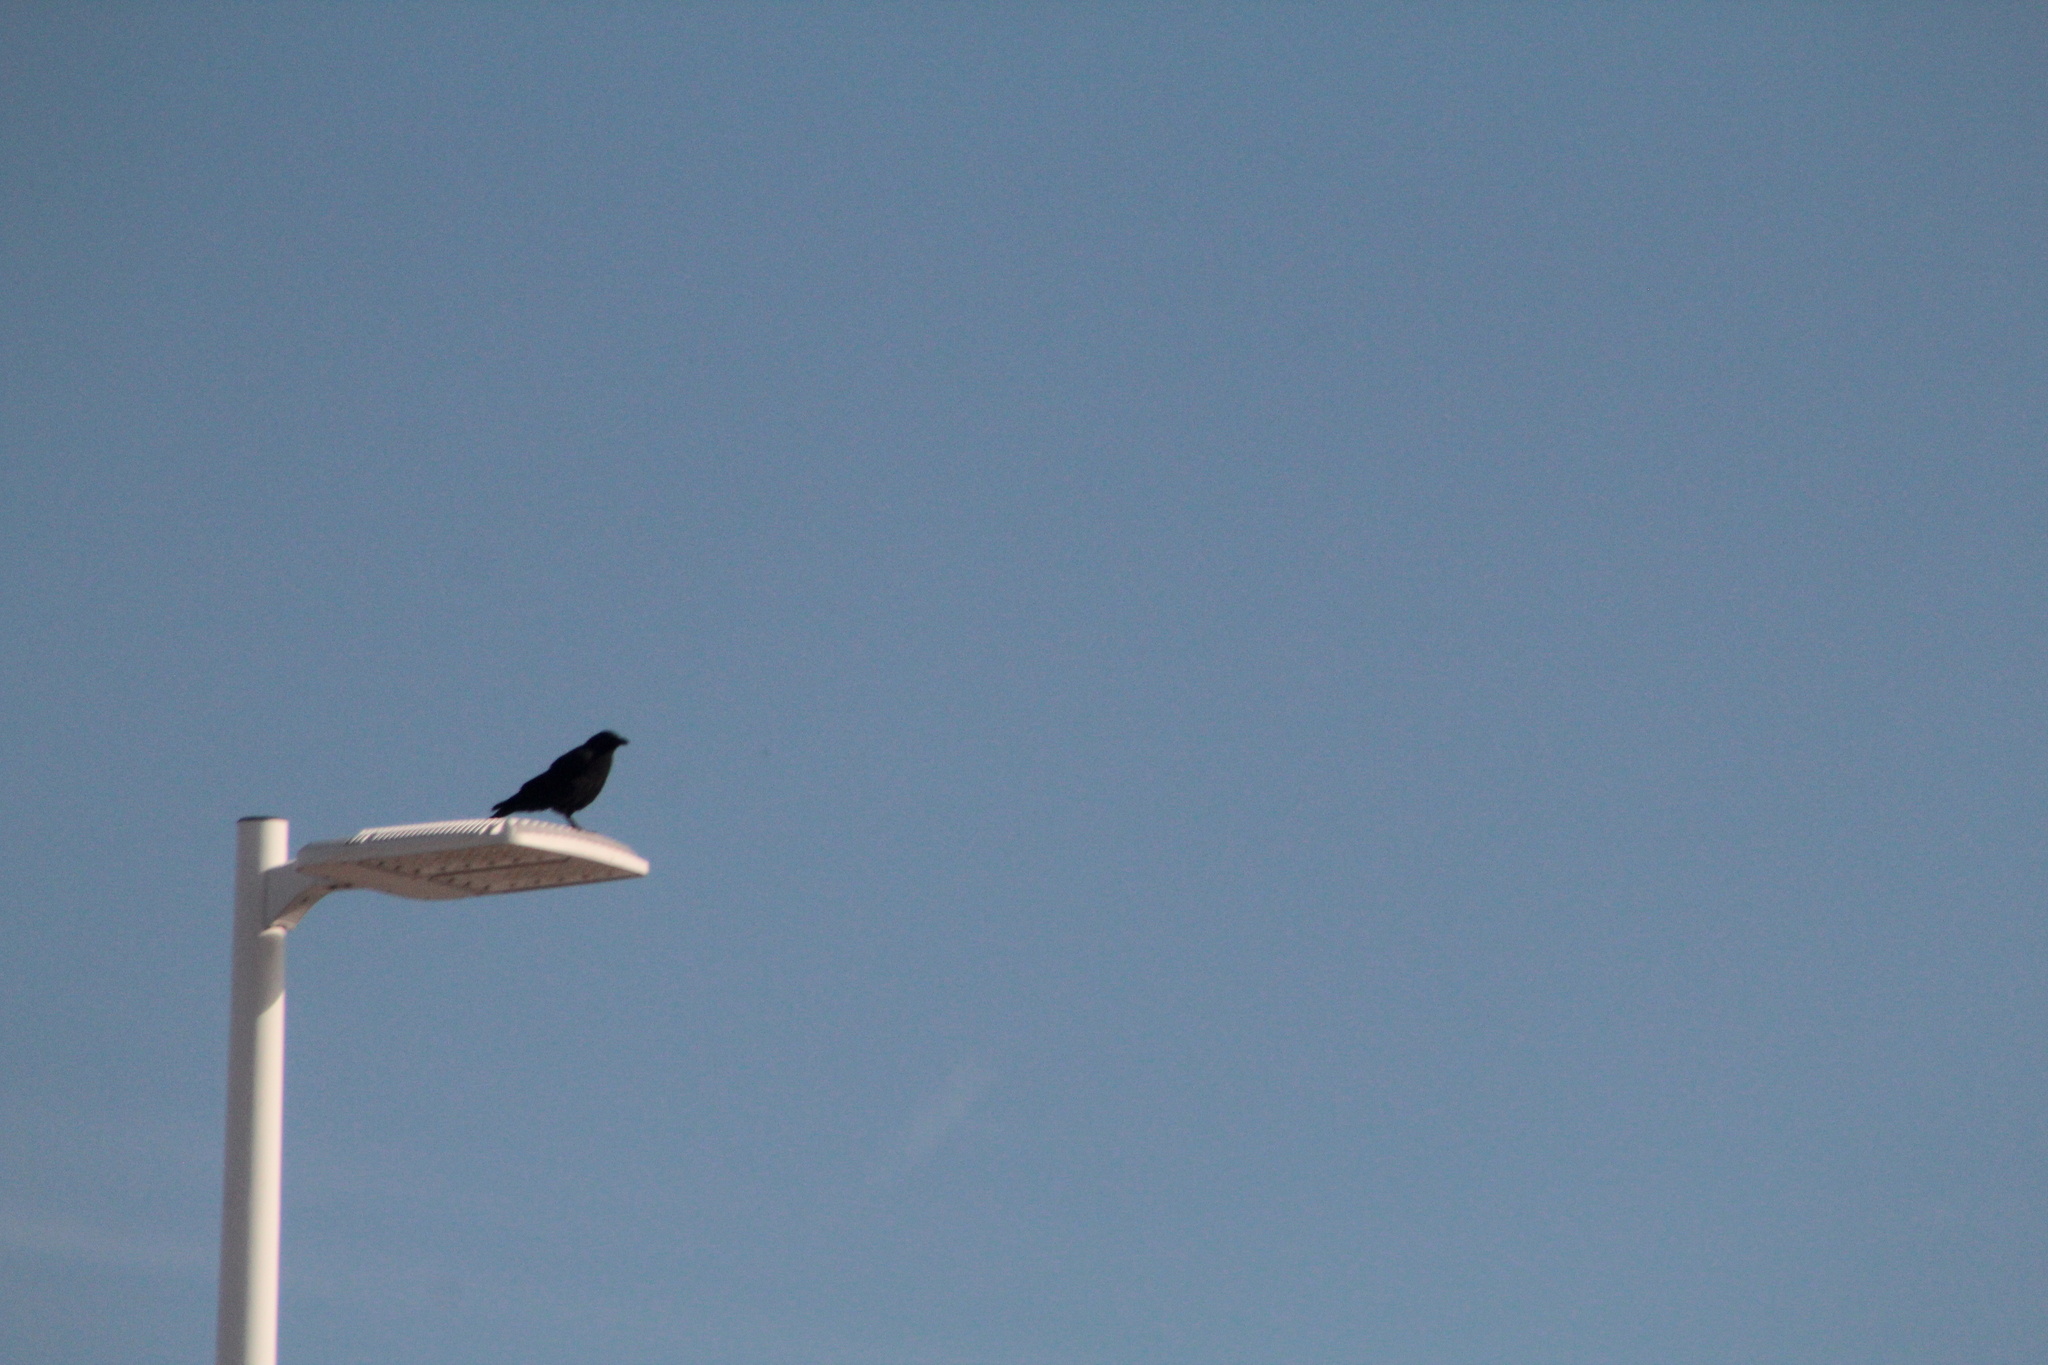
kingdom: Animalia
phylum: Chordata
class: Aves
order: Passeriformes
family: Corvidae
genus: Corvus
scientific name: Corvus brachyrhynchos
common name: American crow
